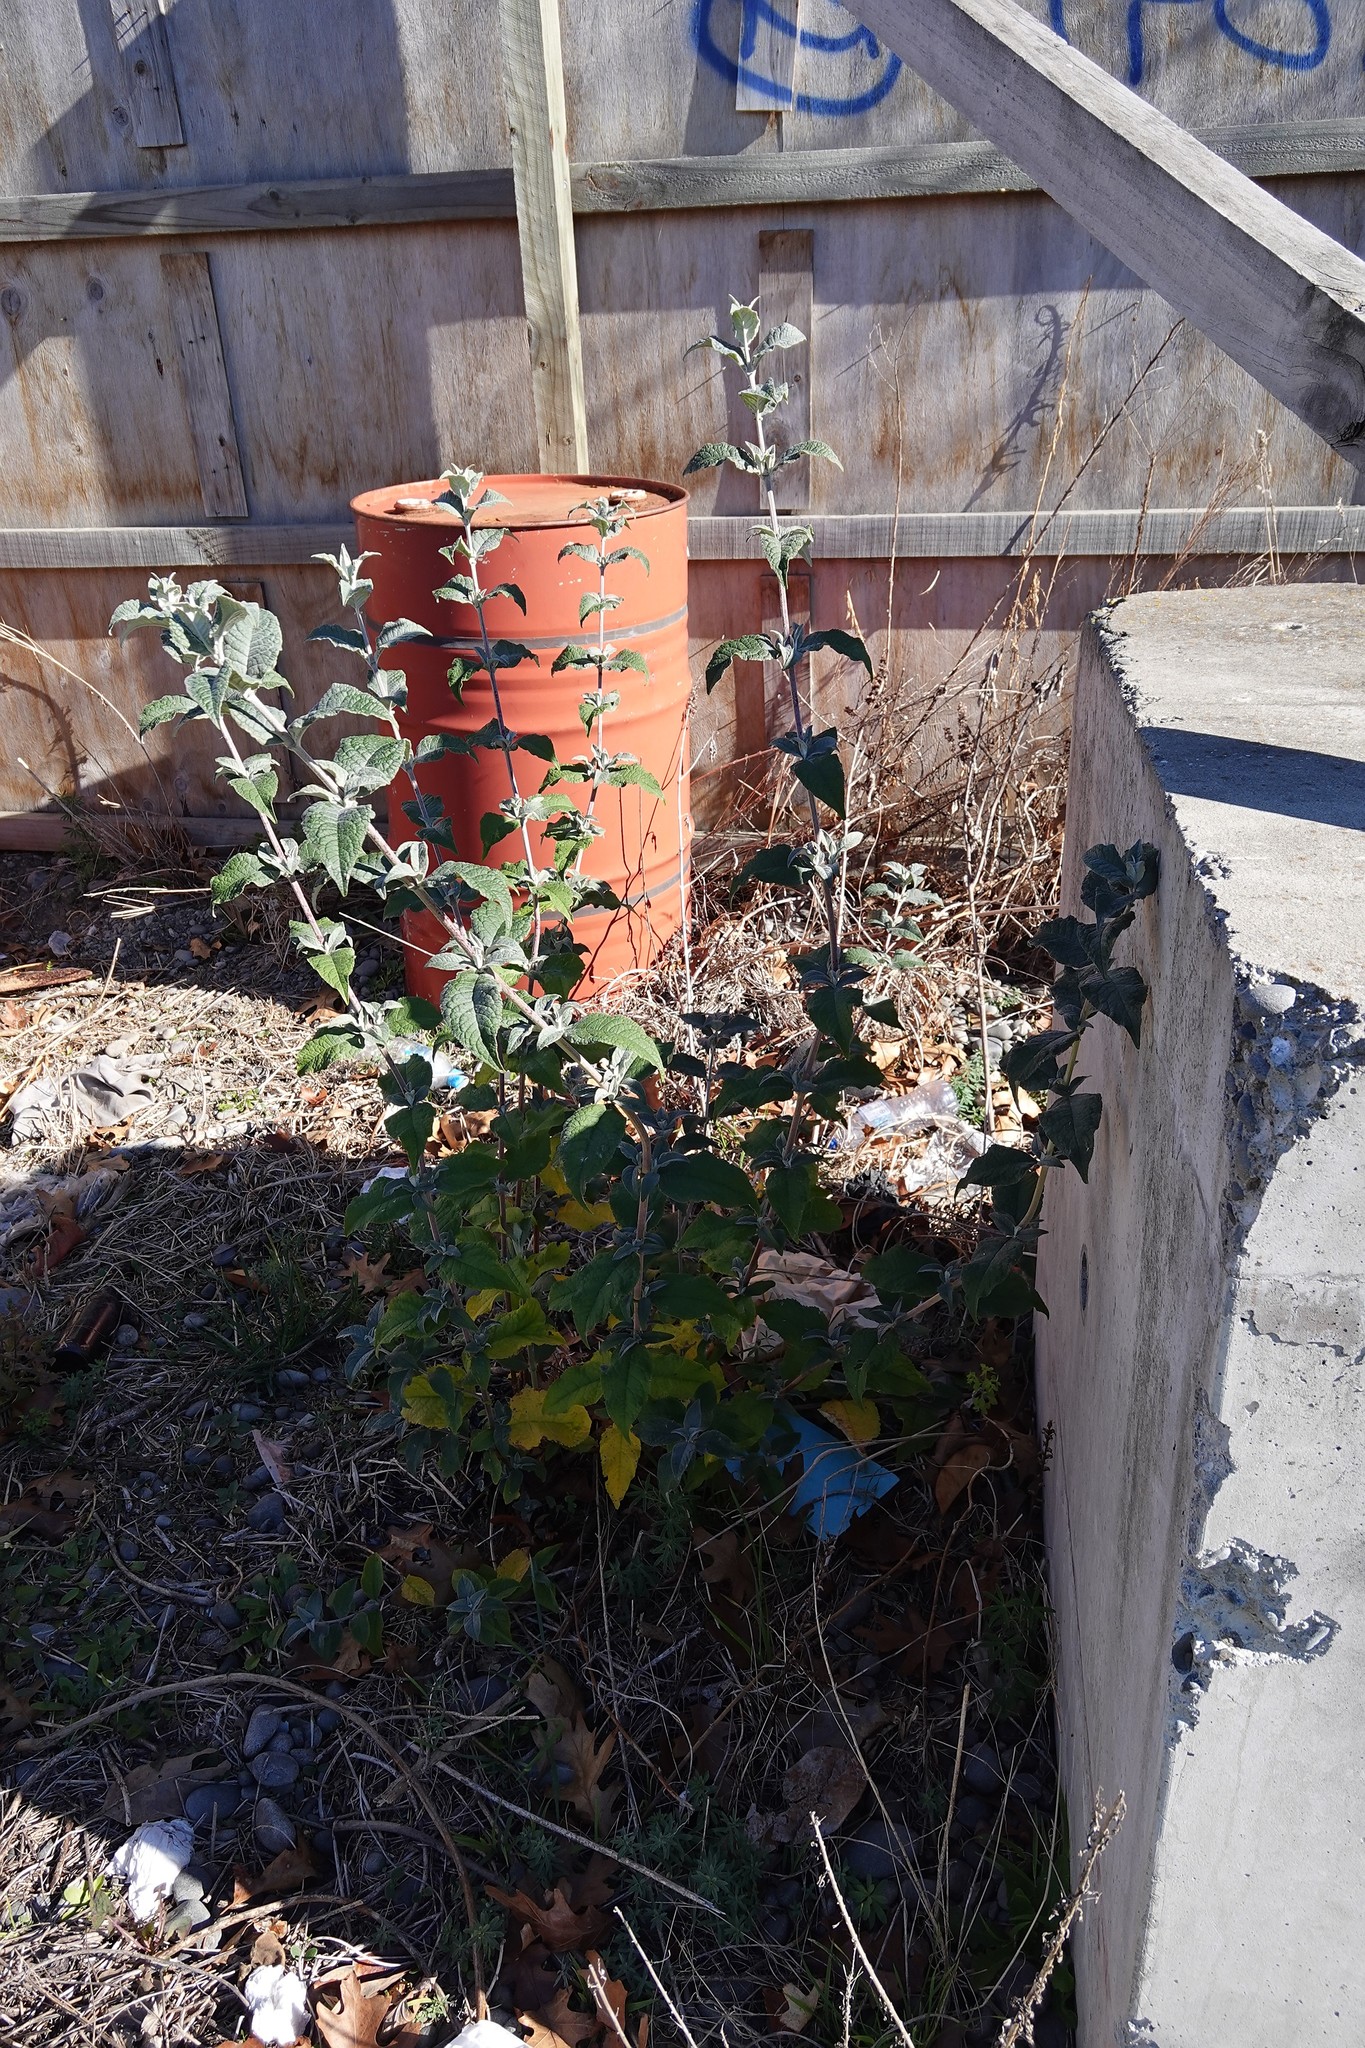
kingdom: Plantae
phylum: Tracheophyta
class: Magnoliopsida
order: Lamiales
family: Scrophulariaceae
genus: Buddleja
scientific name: Buddleja davidii
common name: Butterfly-bush
